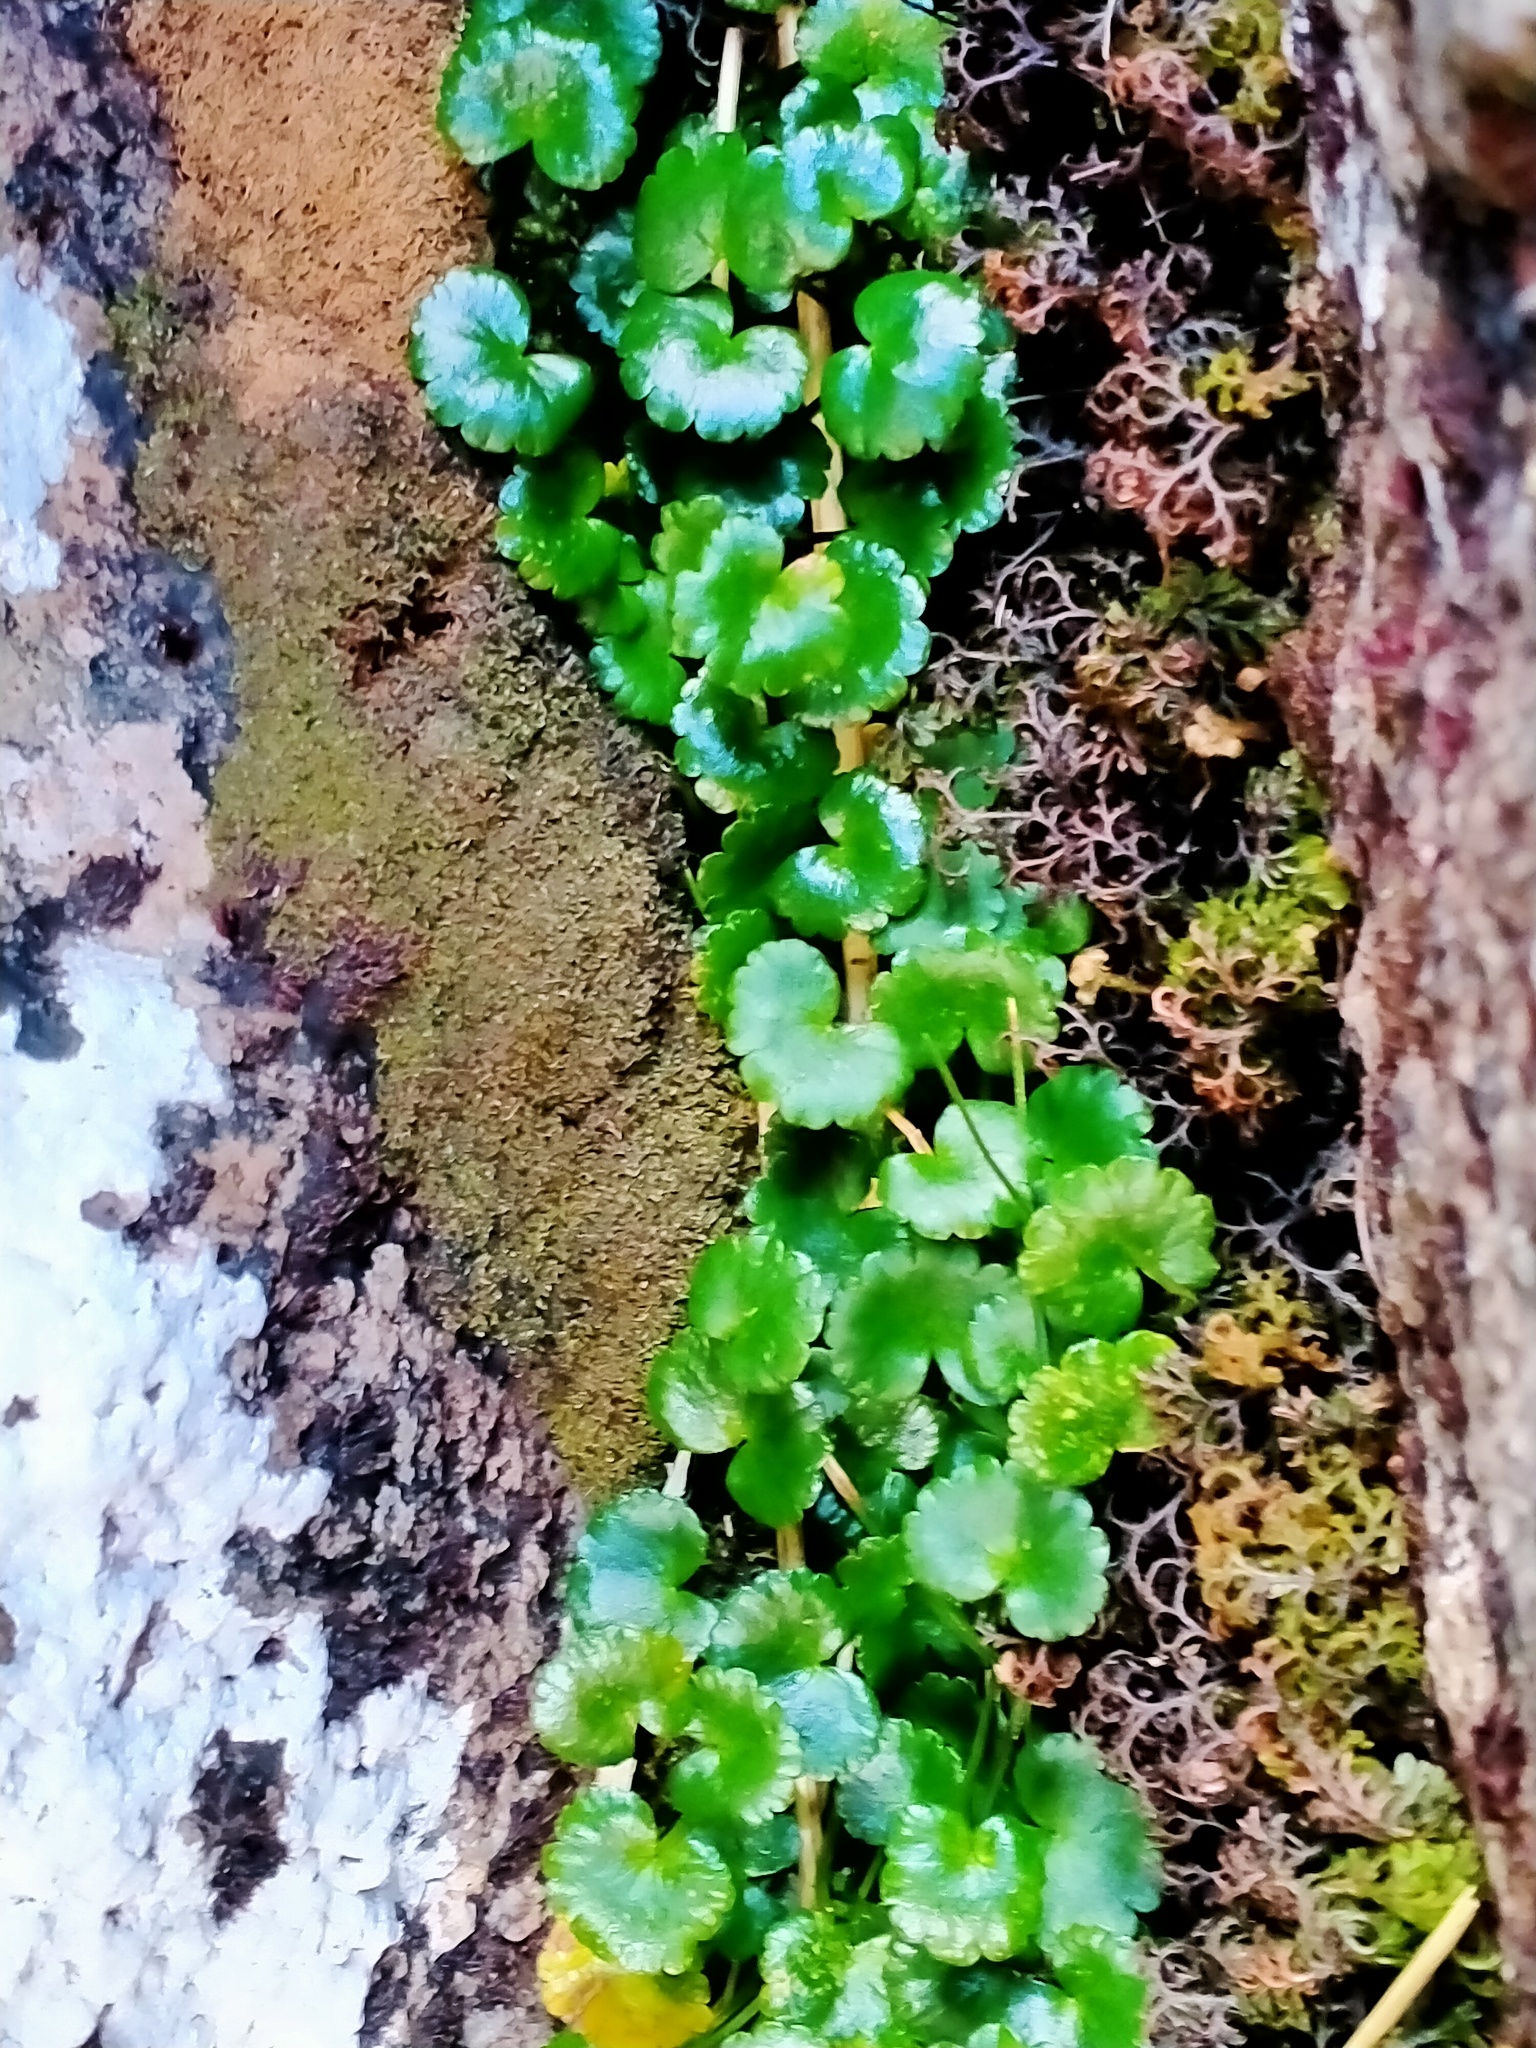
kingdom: Plantae
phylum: Tracheophyta
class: Magnoliopsida
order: Apiales
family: Apiaceae
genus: Azorella
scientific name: Azorella schizeilema
